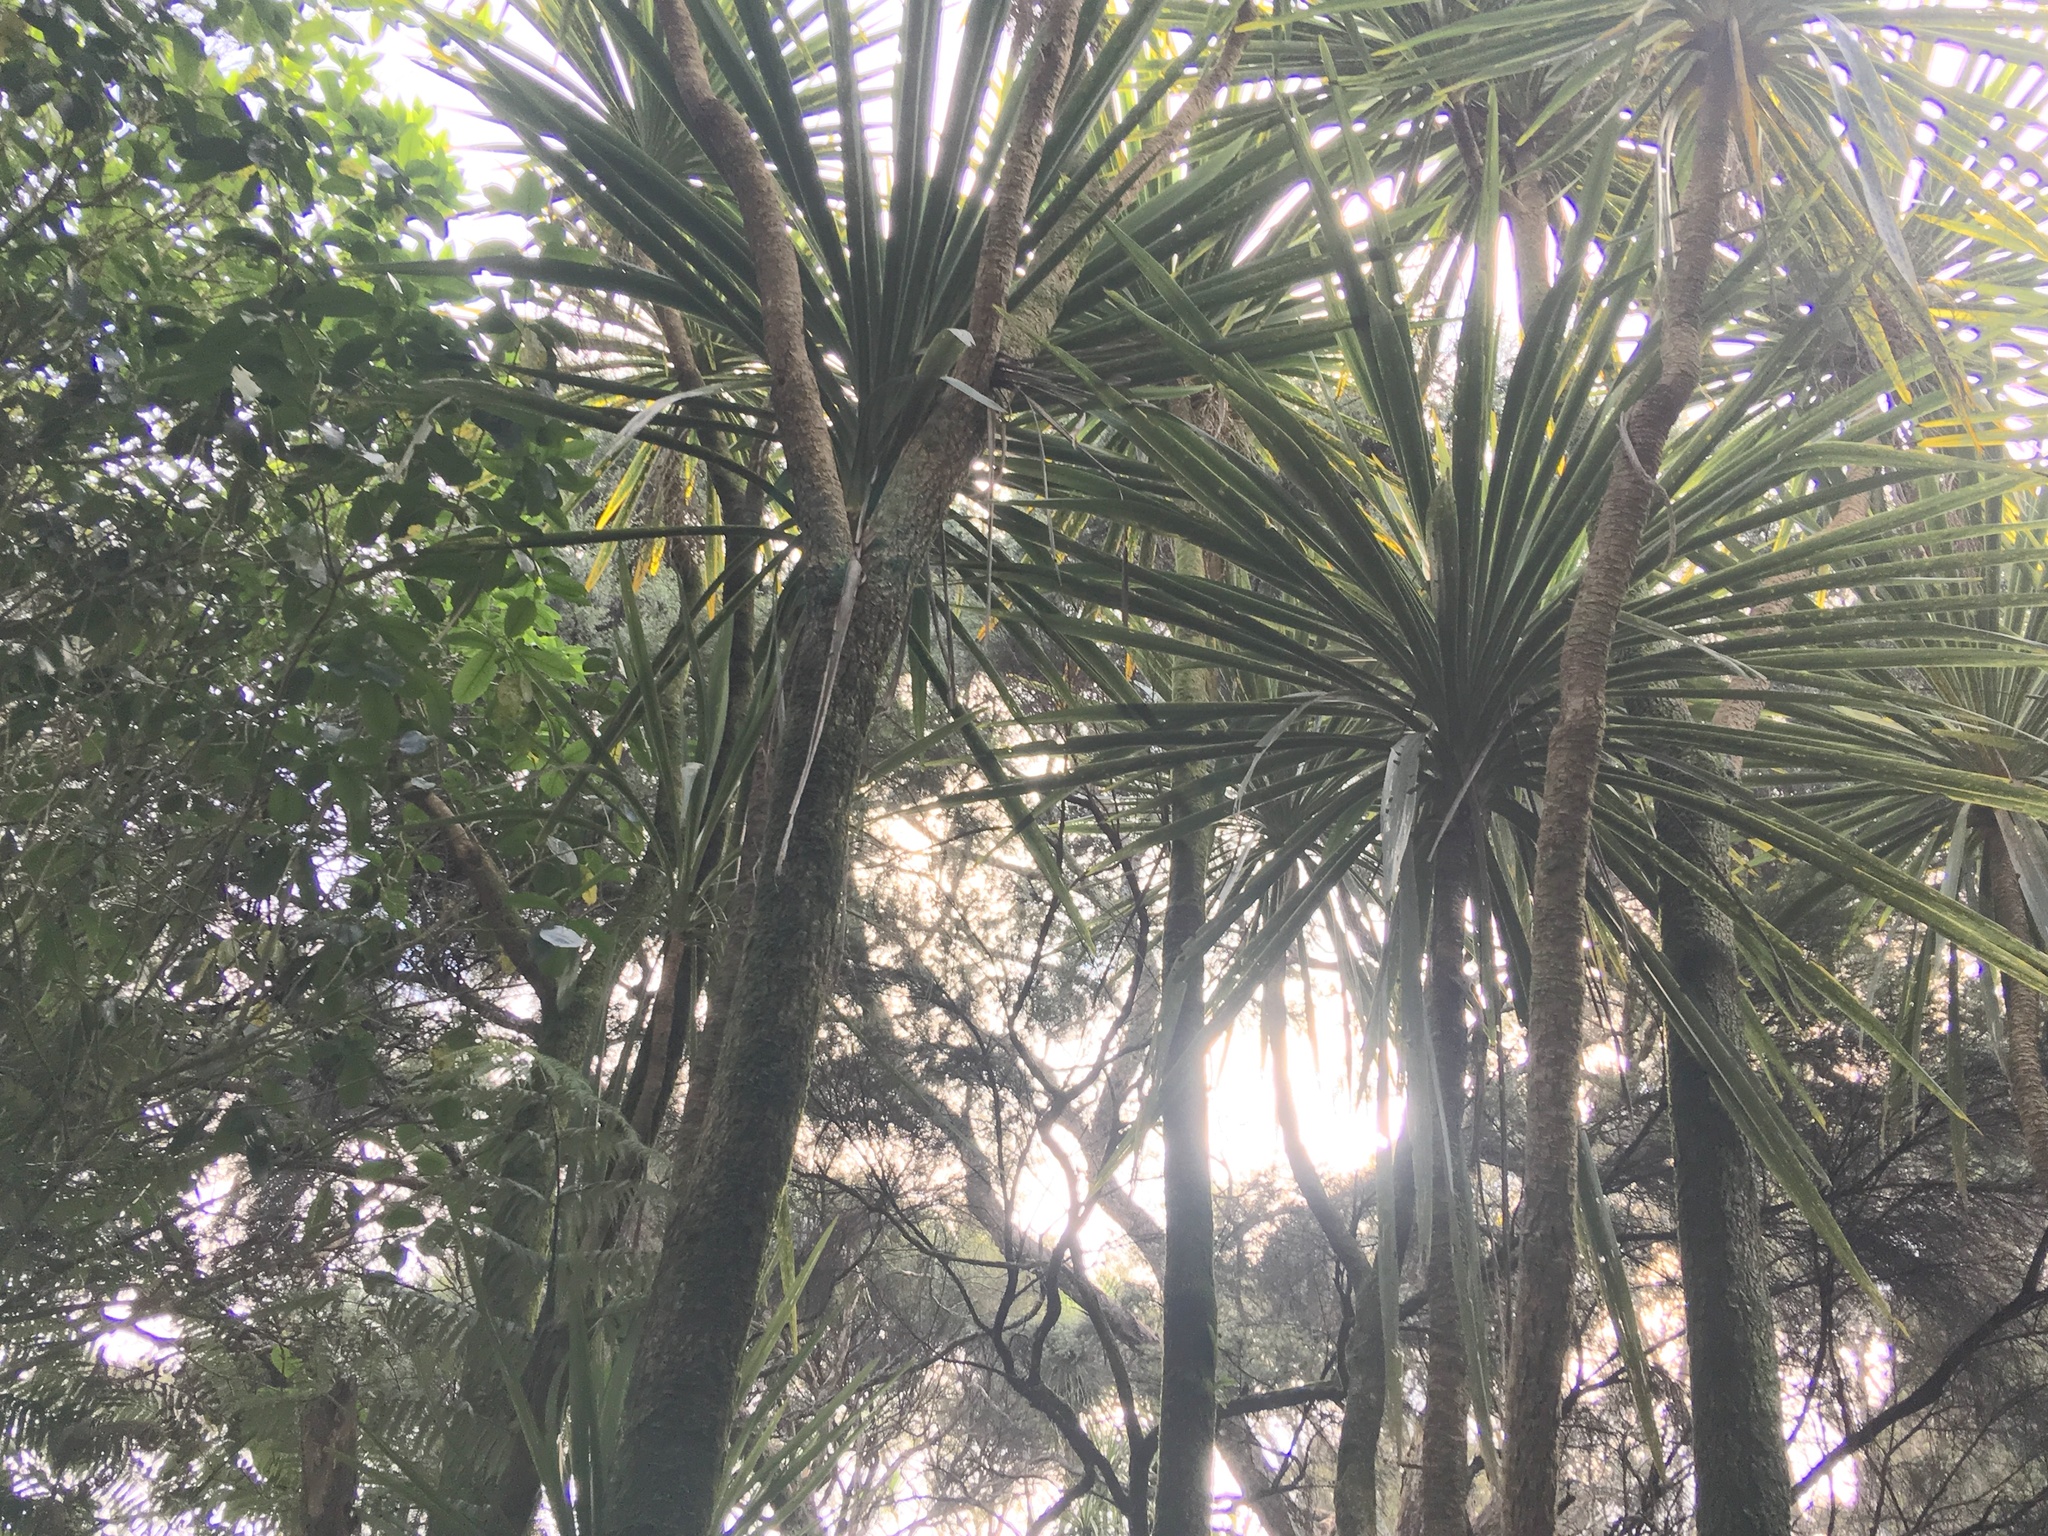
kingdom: Plantae
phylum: Tracheophyta
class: Liliopsida
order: Asparagales
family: Asparagaceae
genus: Cordyline
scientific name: Cordyline australis
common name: Cabbage-palm
